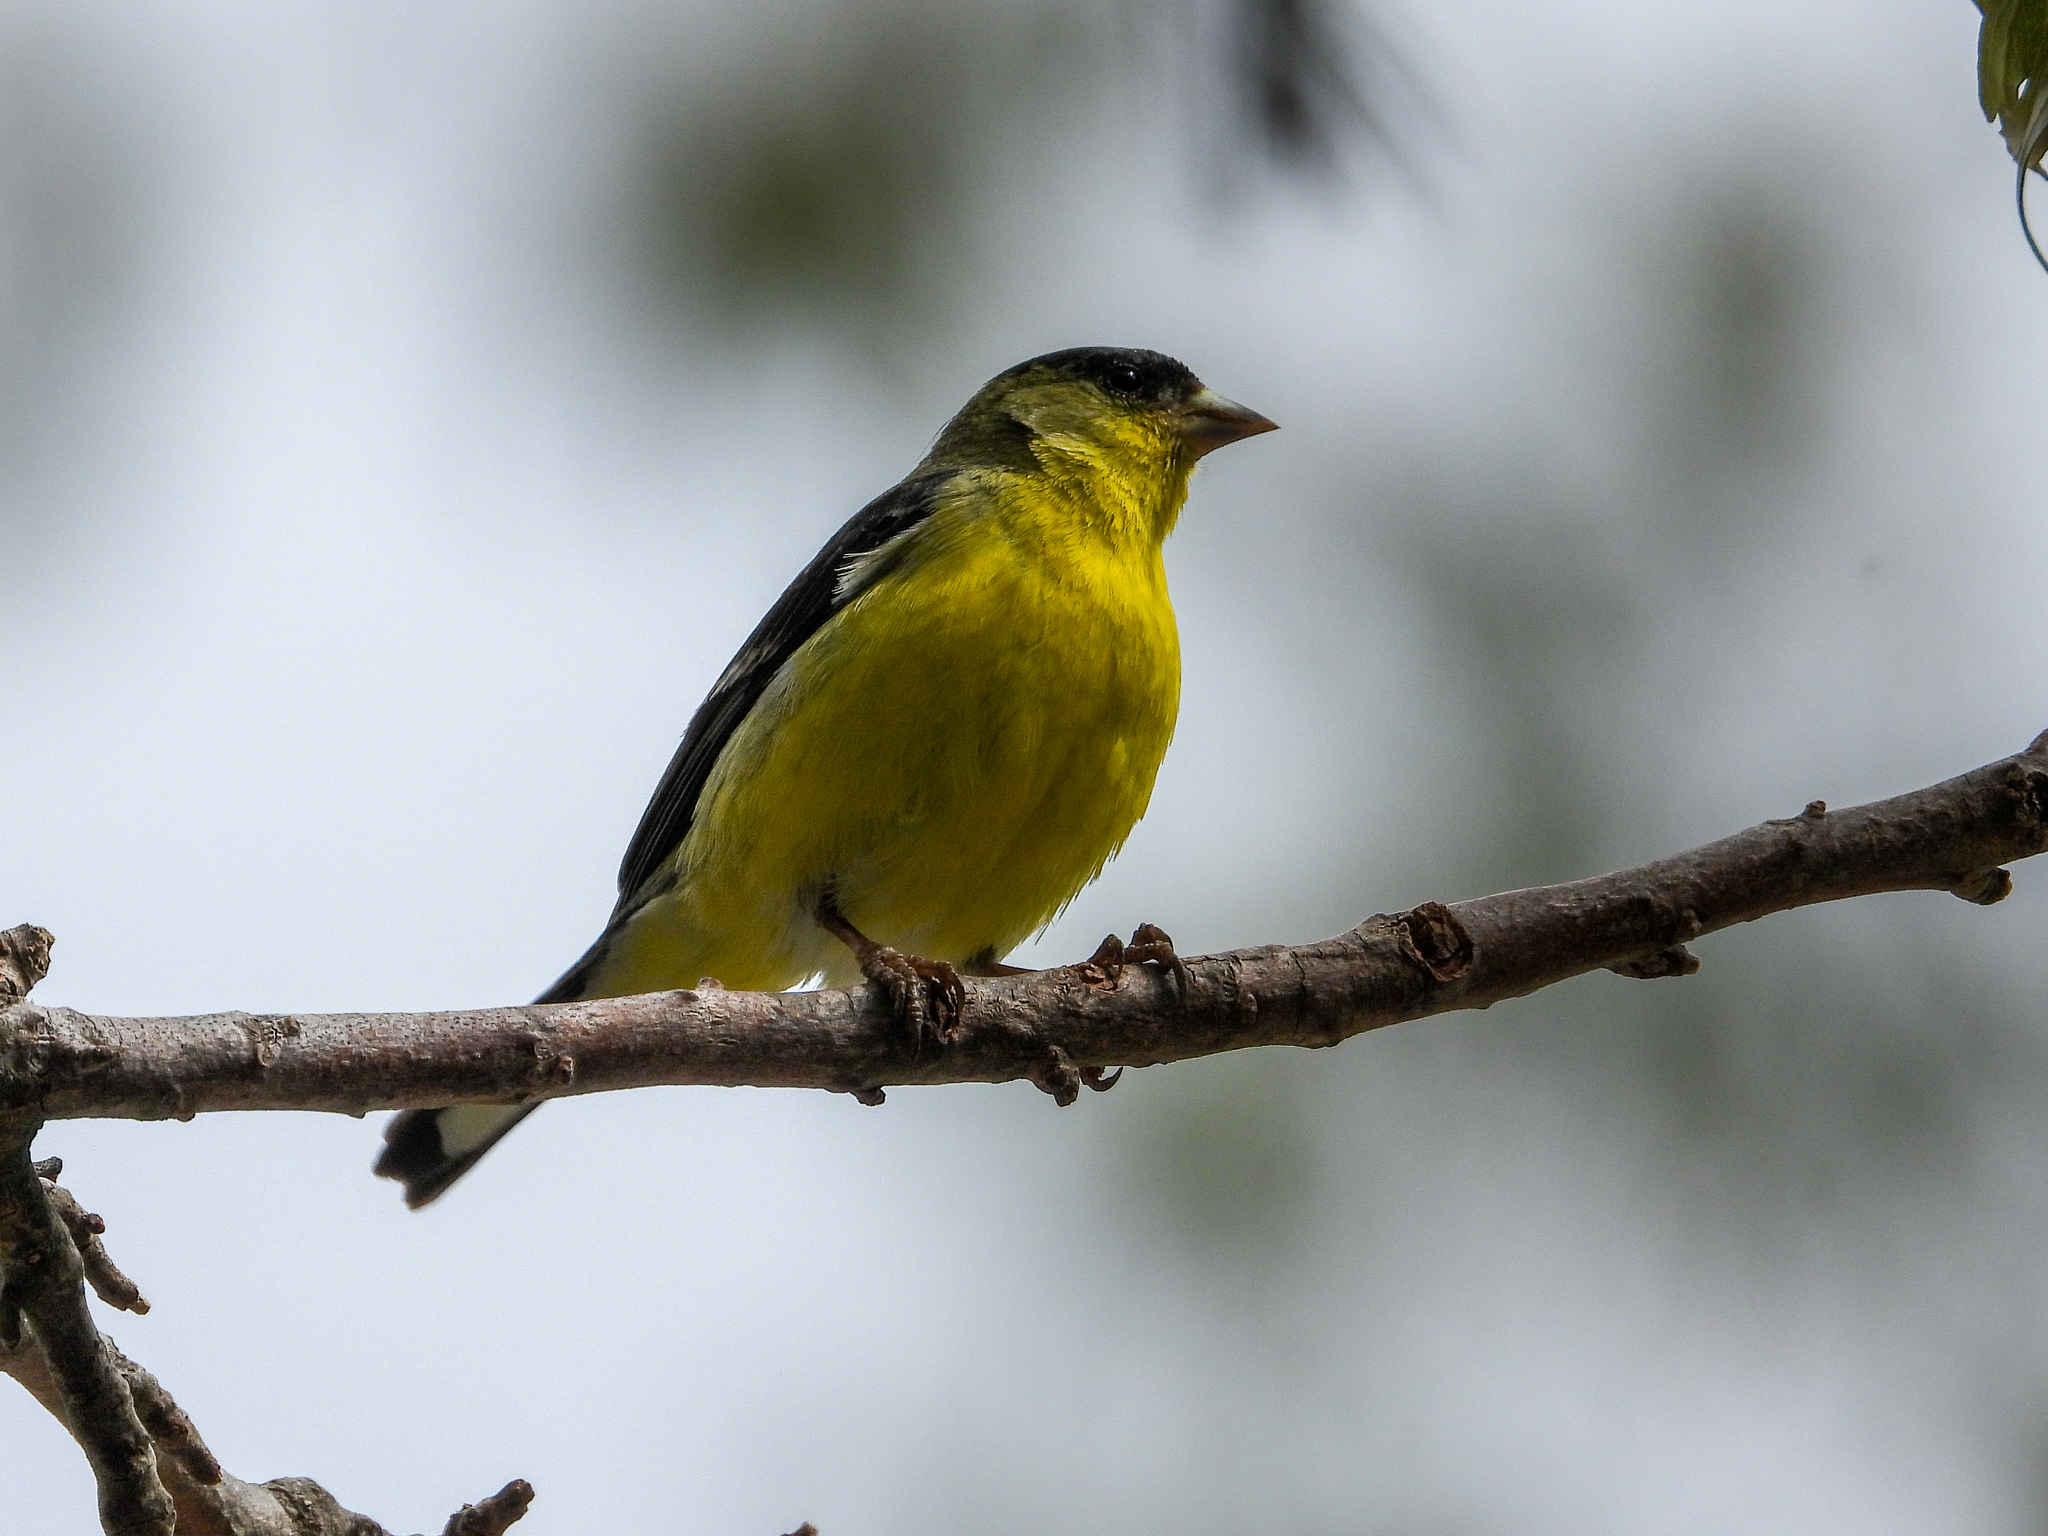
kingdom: Animalia
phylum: Chordata
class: Aves
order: Passeriformes
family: Fringillidae
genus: Spinus
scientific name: Spinus psaltria
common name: Lesser goldfinch
